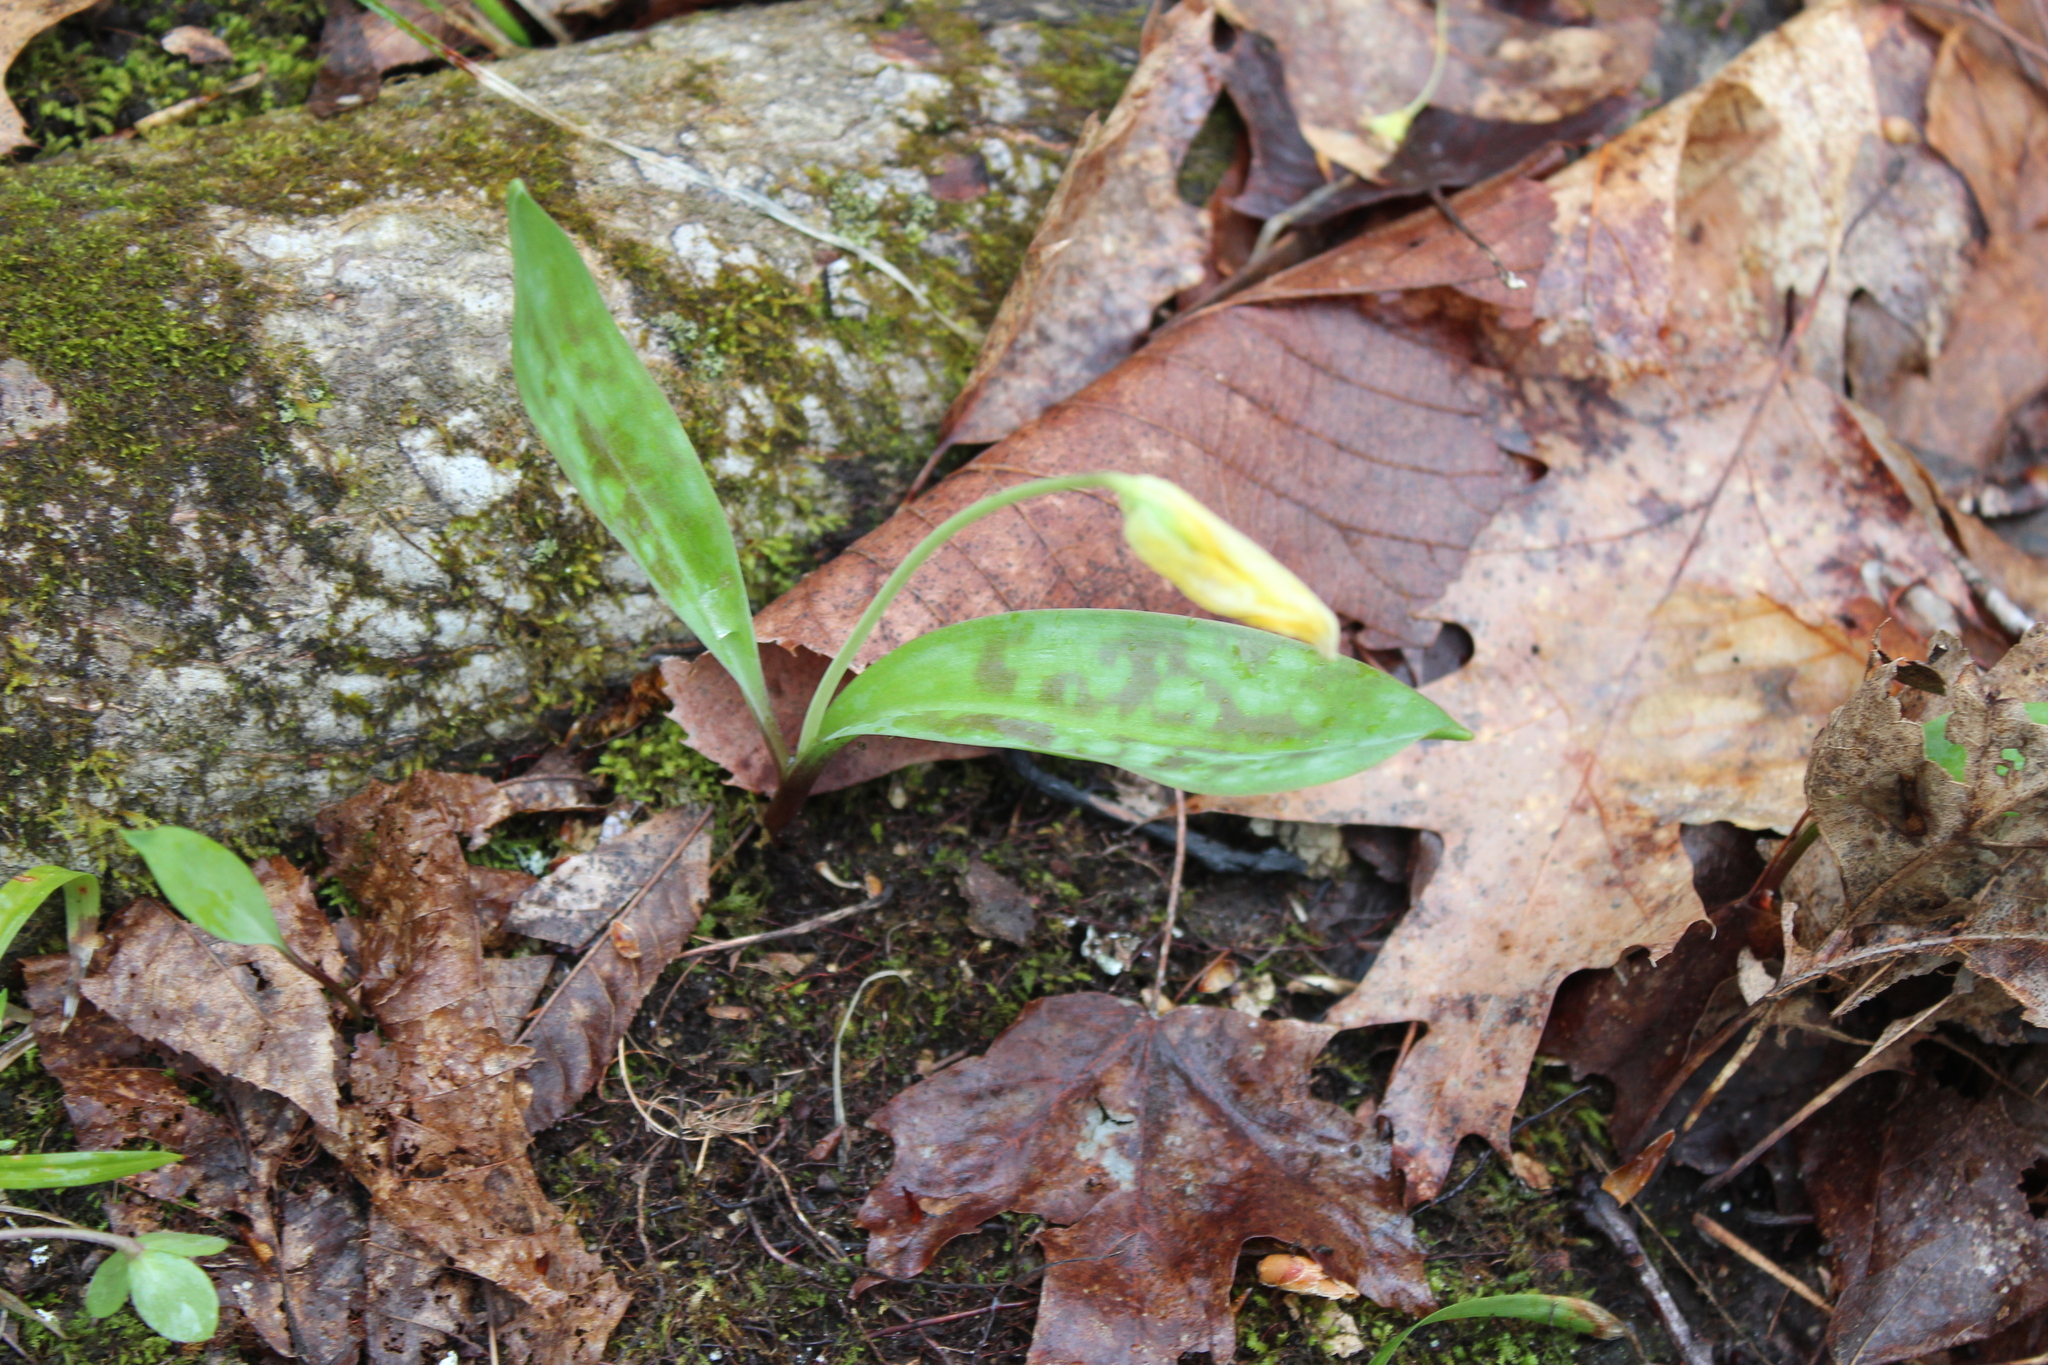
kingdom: Plantae
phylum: Tracheophyta
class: Liliopsida
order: Liliales
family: Liliaceae
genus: Erythronium
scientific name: Erythronium americanum
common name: Yellow adder's-tongue
